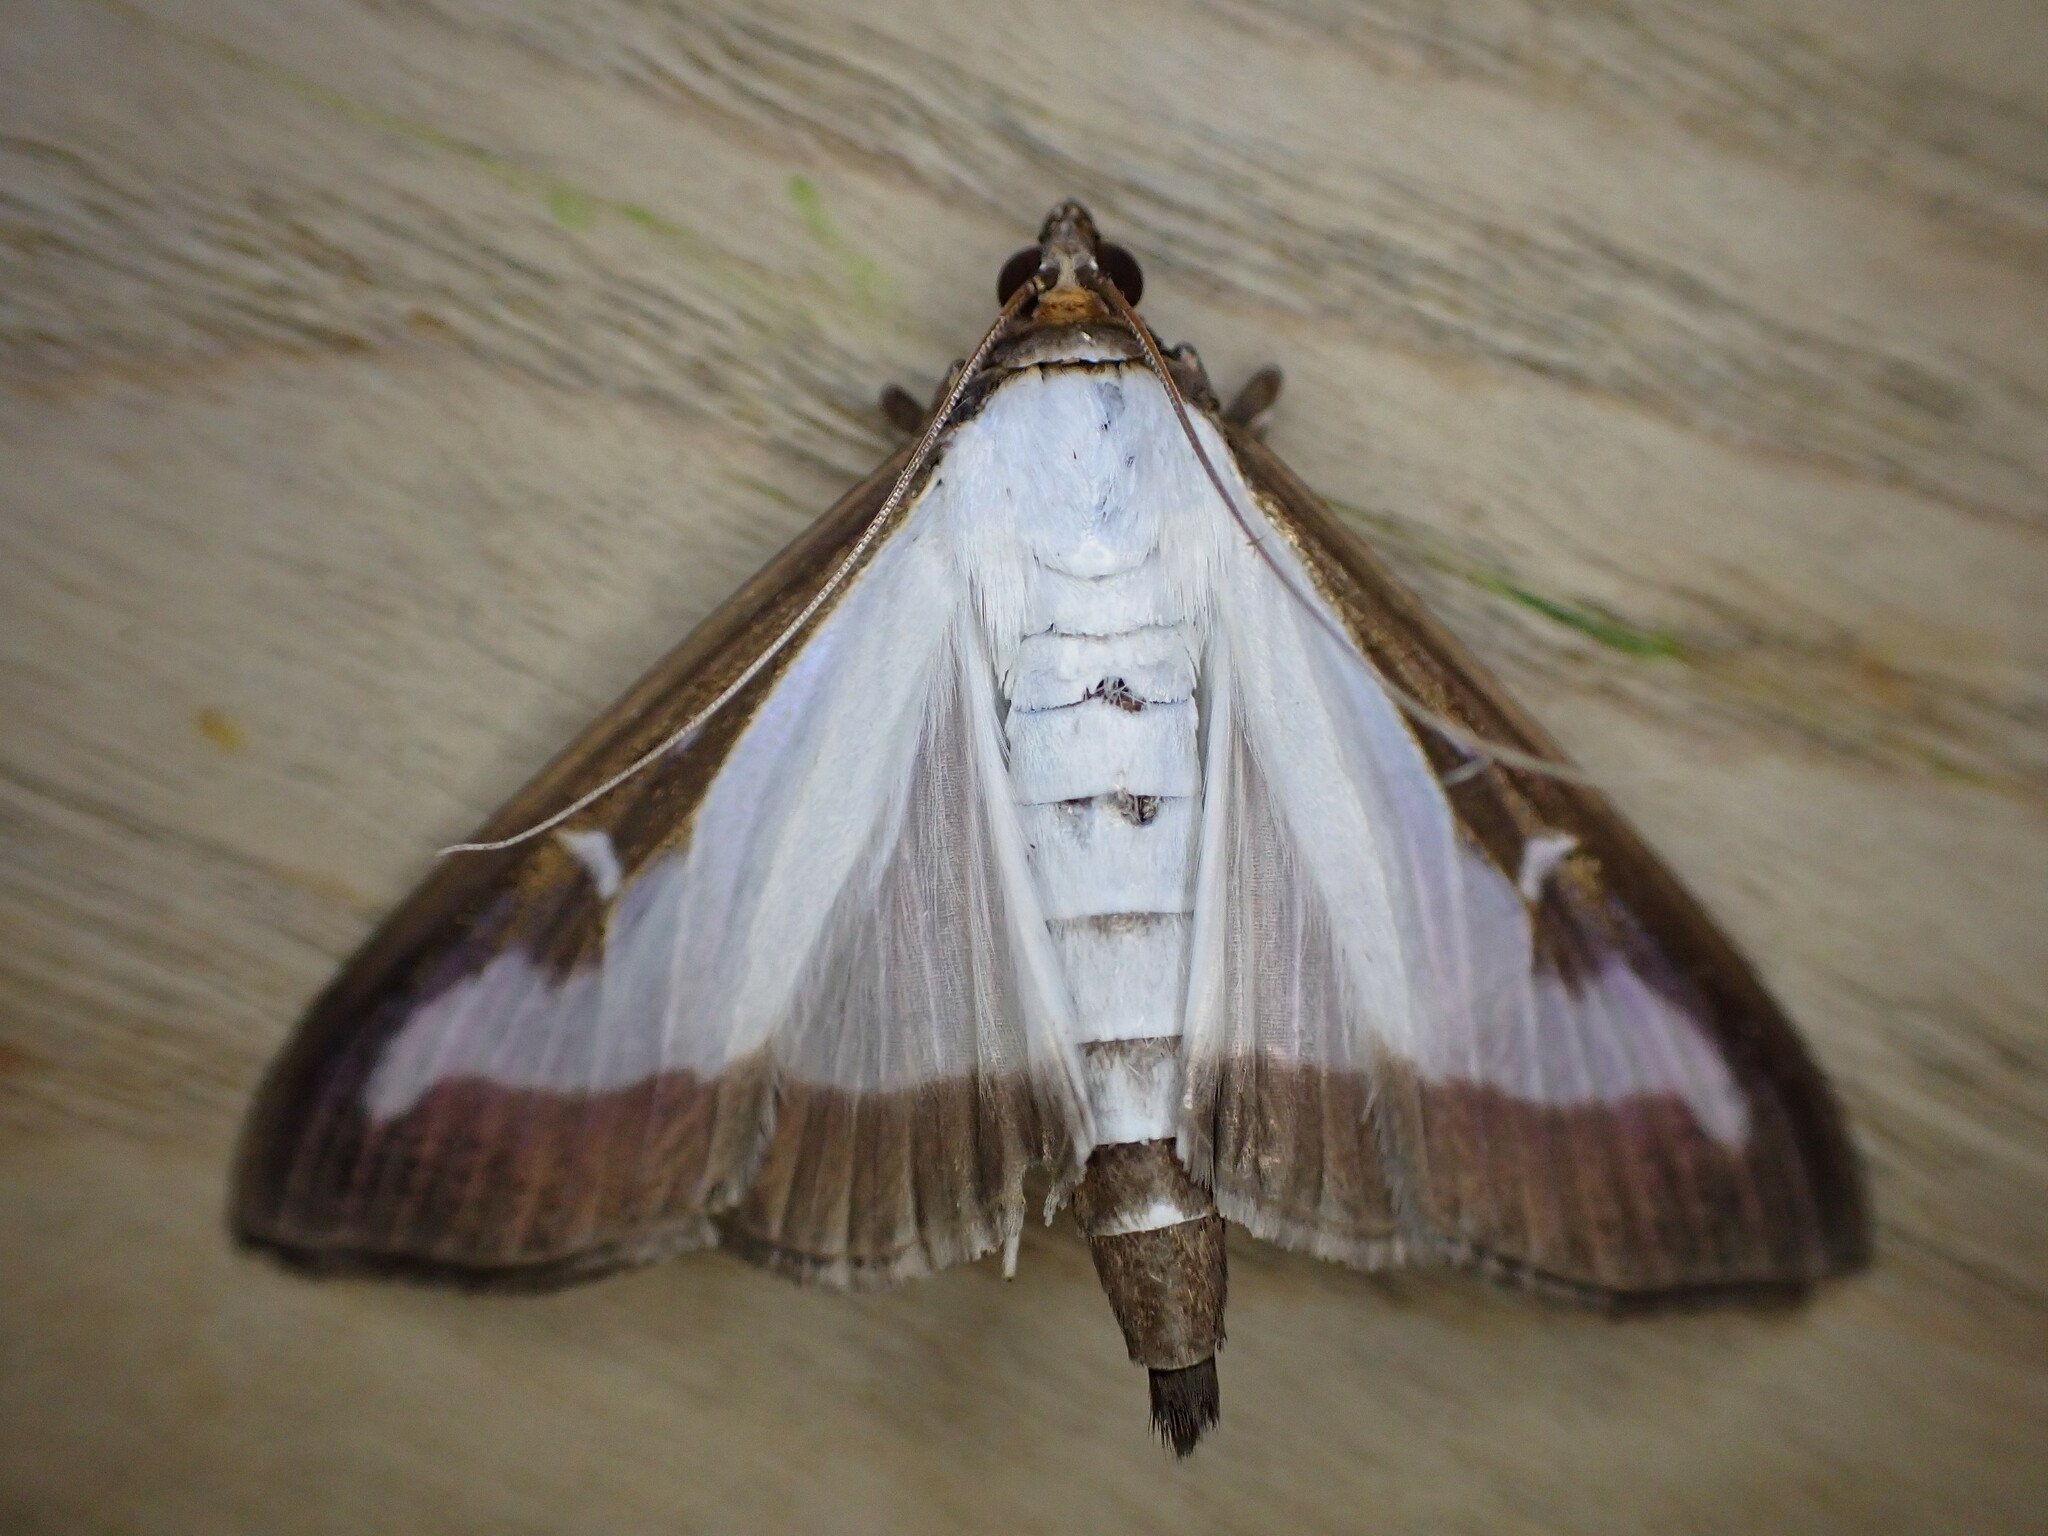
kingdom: Animalia
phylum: Arthropoda
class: Insecta
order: Lepidoptera
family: Crambidae
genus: Cydalima
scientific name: Cydalima perspectalis
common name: Box tree moth
